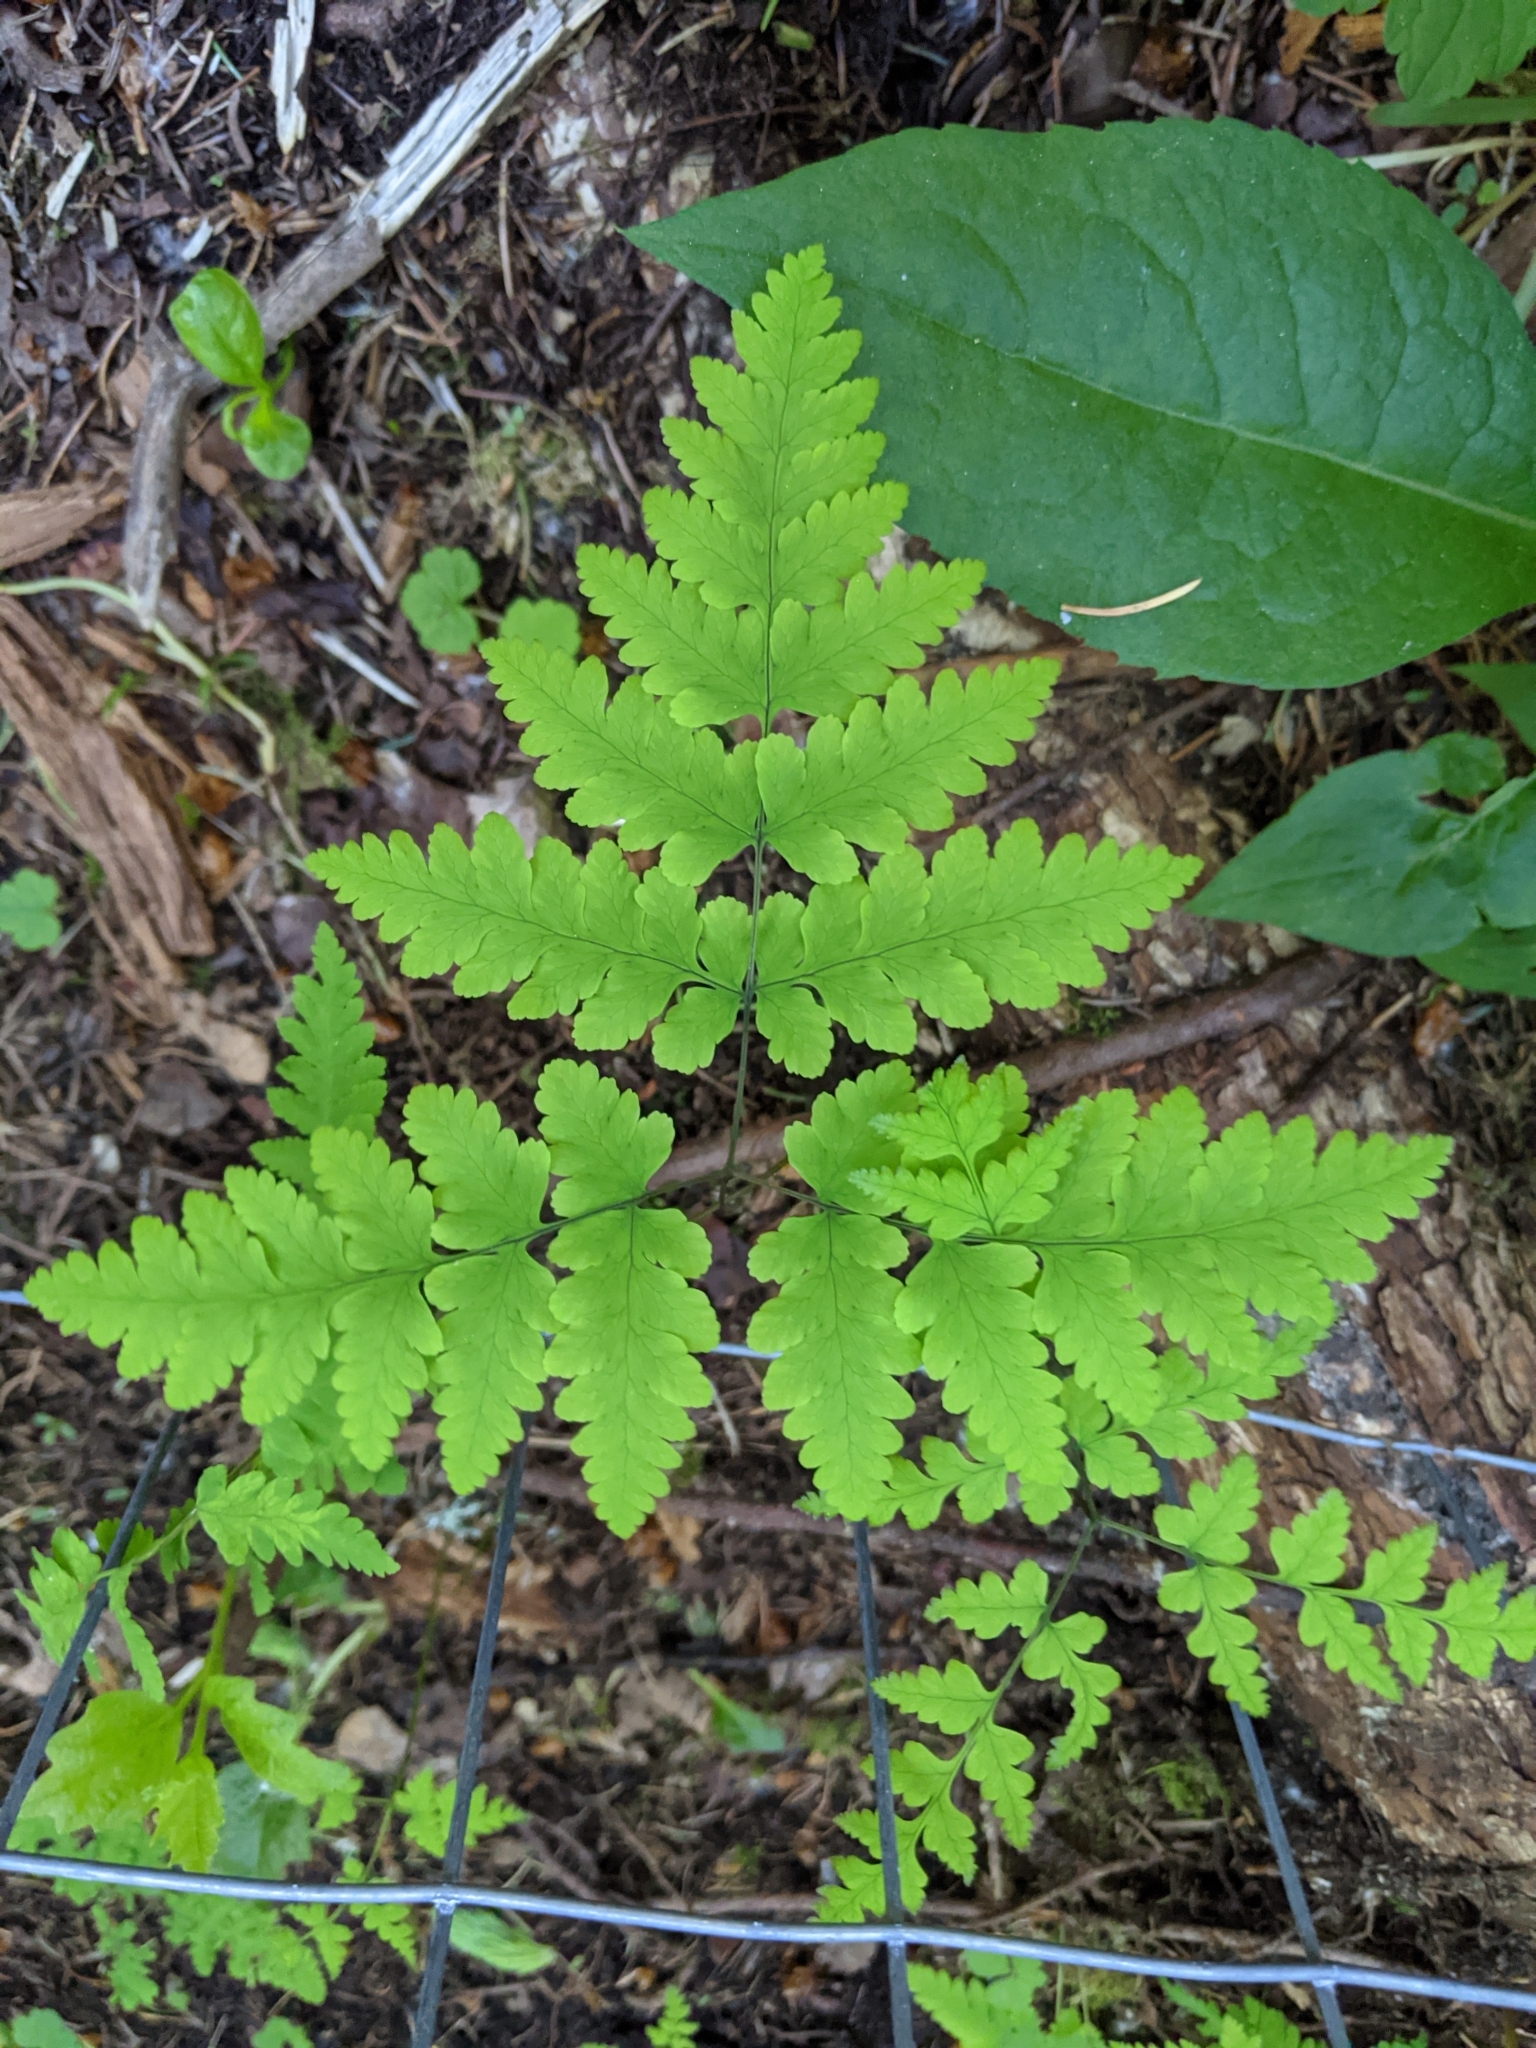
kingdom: Plantae
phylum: Tracheophyta
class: Polypodiopsida
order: Polypodiales
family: Cystopteridaceae
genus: Gymnocarpium
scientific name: Gymnocarpium dryopteris
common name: Oak fern
